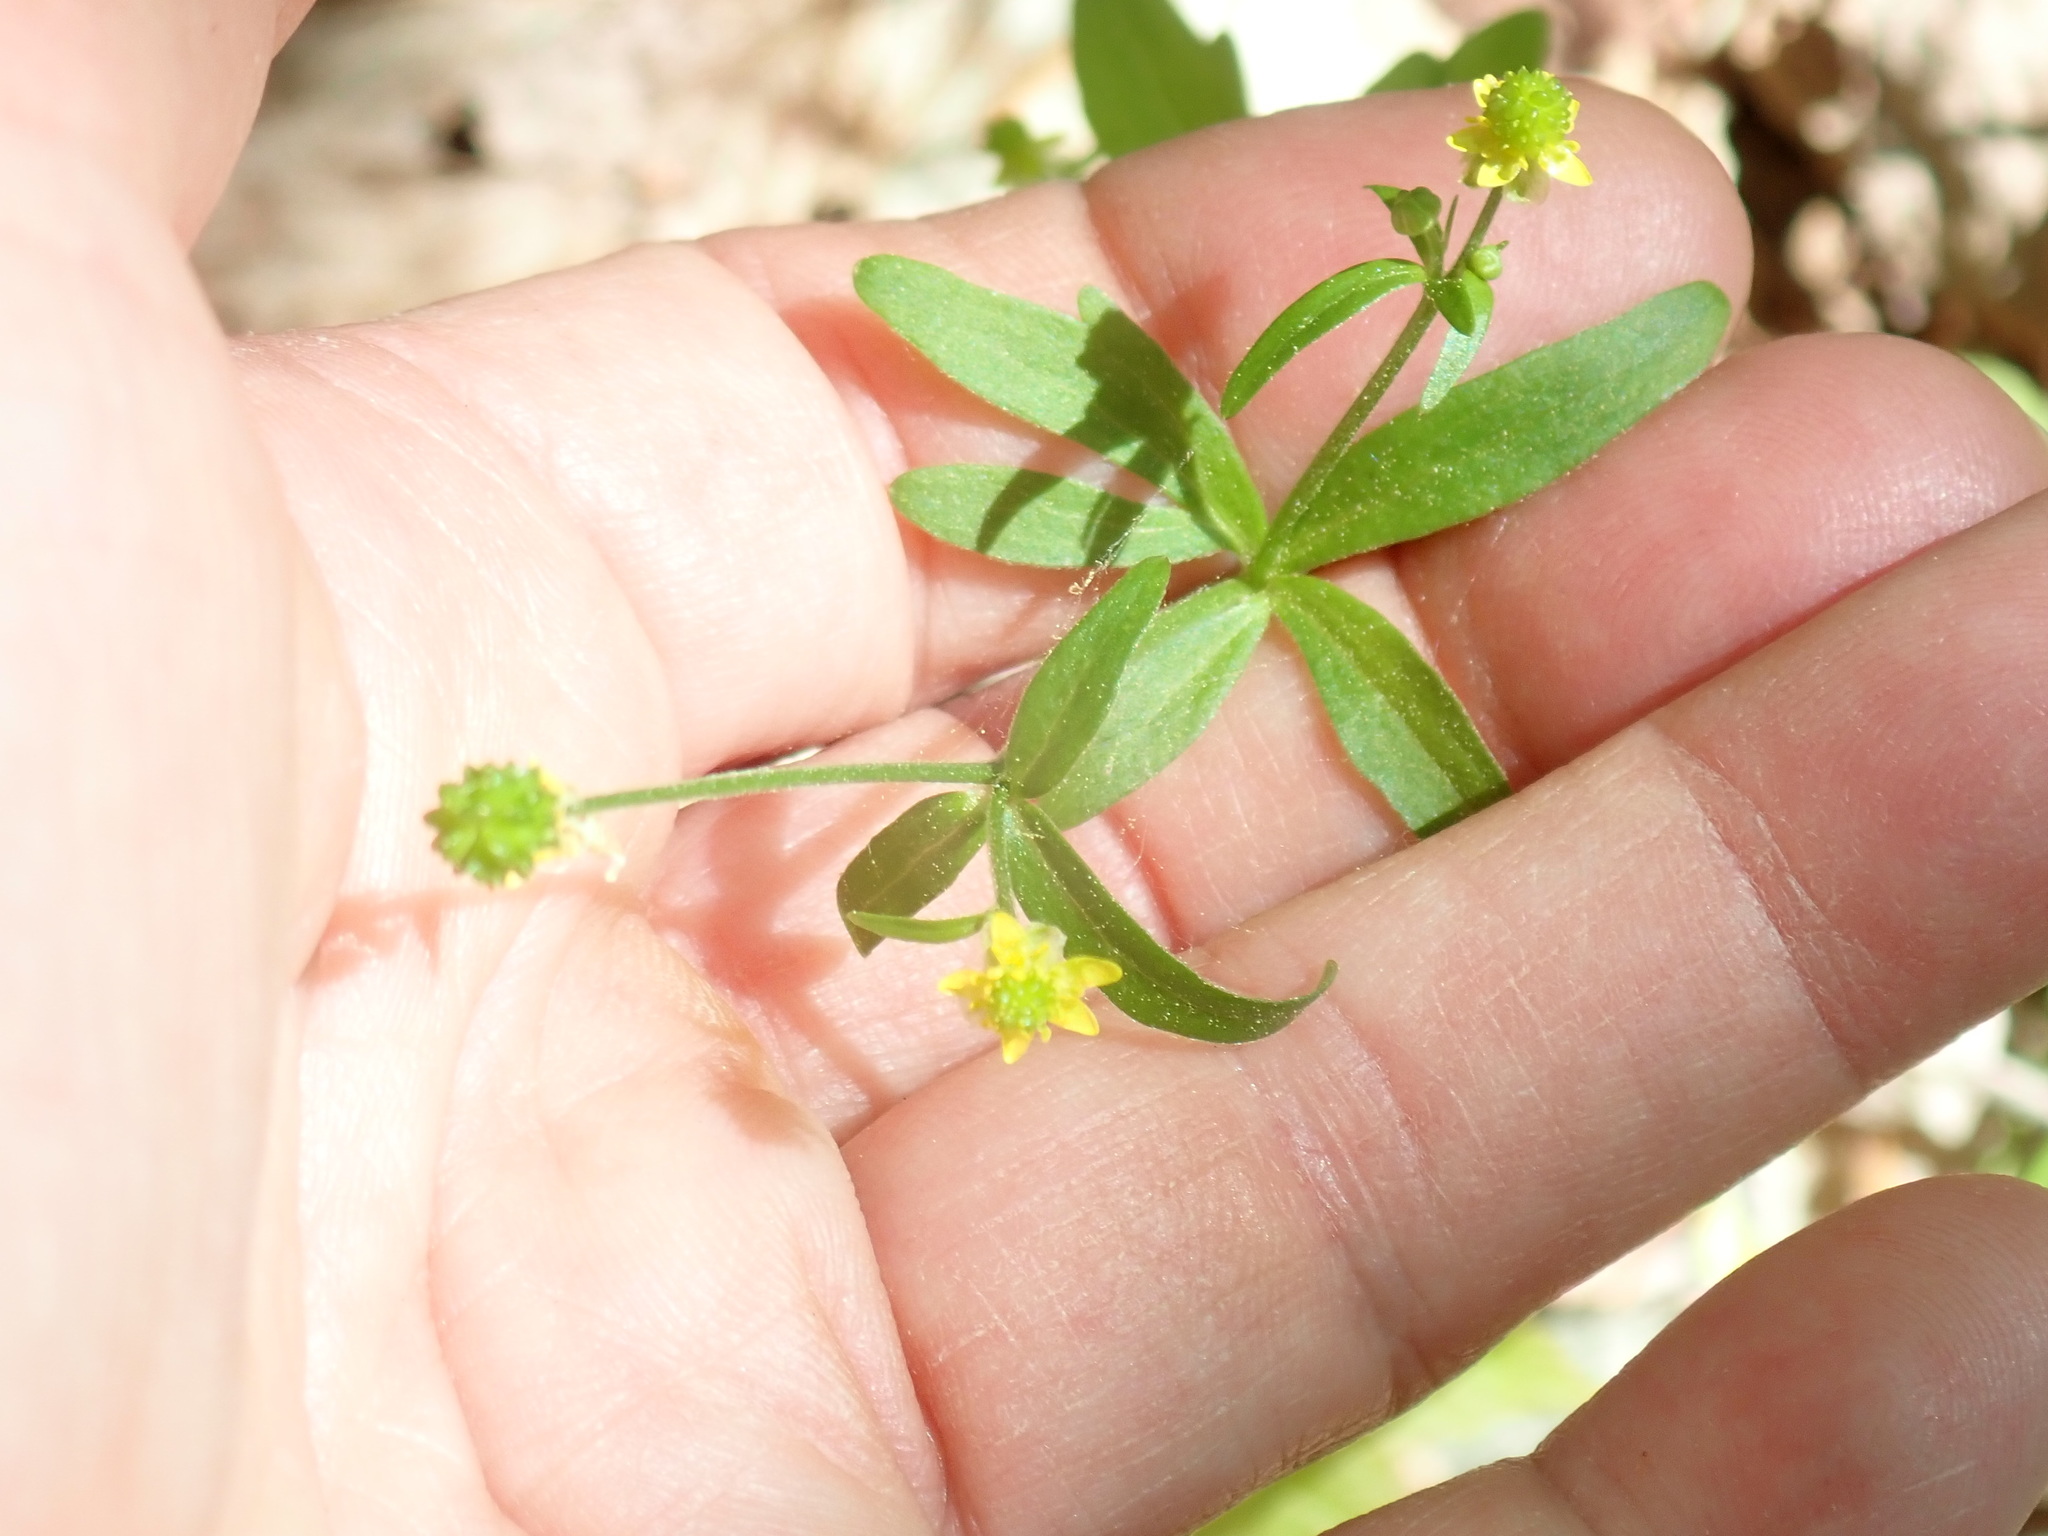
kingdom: Plantae
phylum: Tracheophyta
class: Magnoliopsida
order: Ranunculales
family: Ranunculaceae
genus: Ranunculus
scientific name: Ranunculus abortivus
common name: Early wood buttercup
